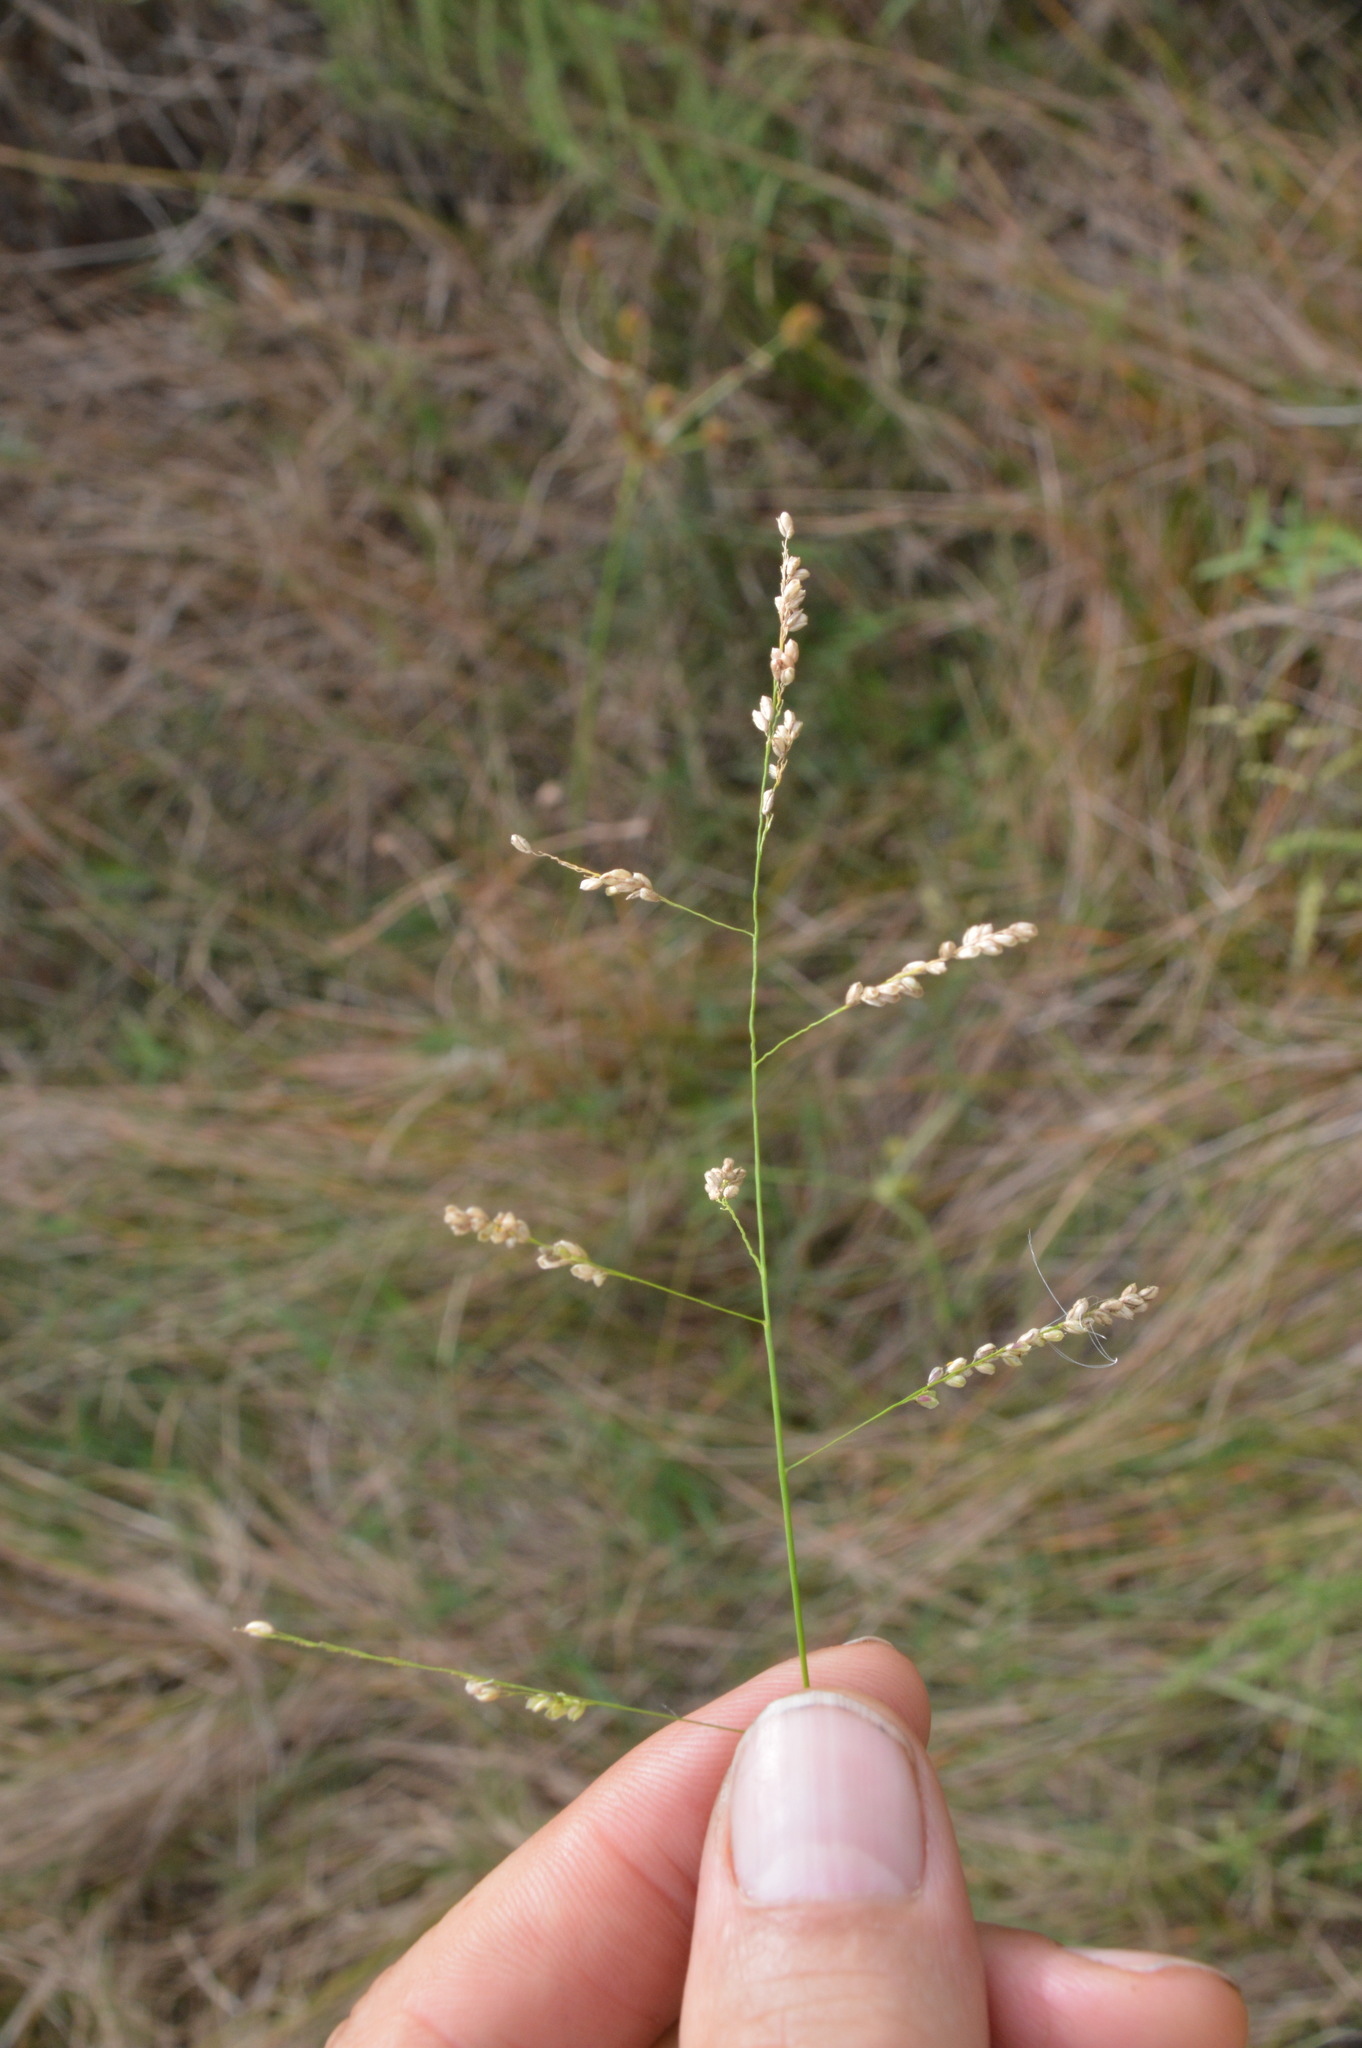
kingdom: Plantae
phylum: Tracheophyta
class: Liliopsida
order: Poales
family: Poaceae
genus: Steinchisma
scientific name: Steinchisma hians
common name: Gaping panic grass
